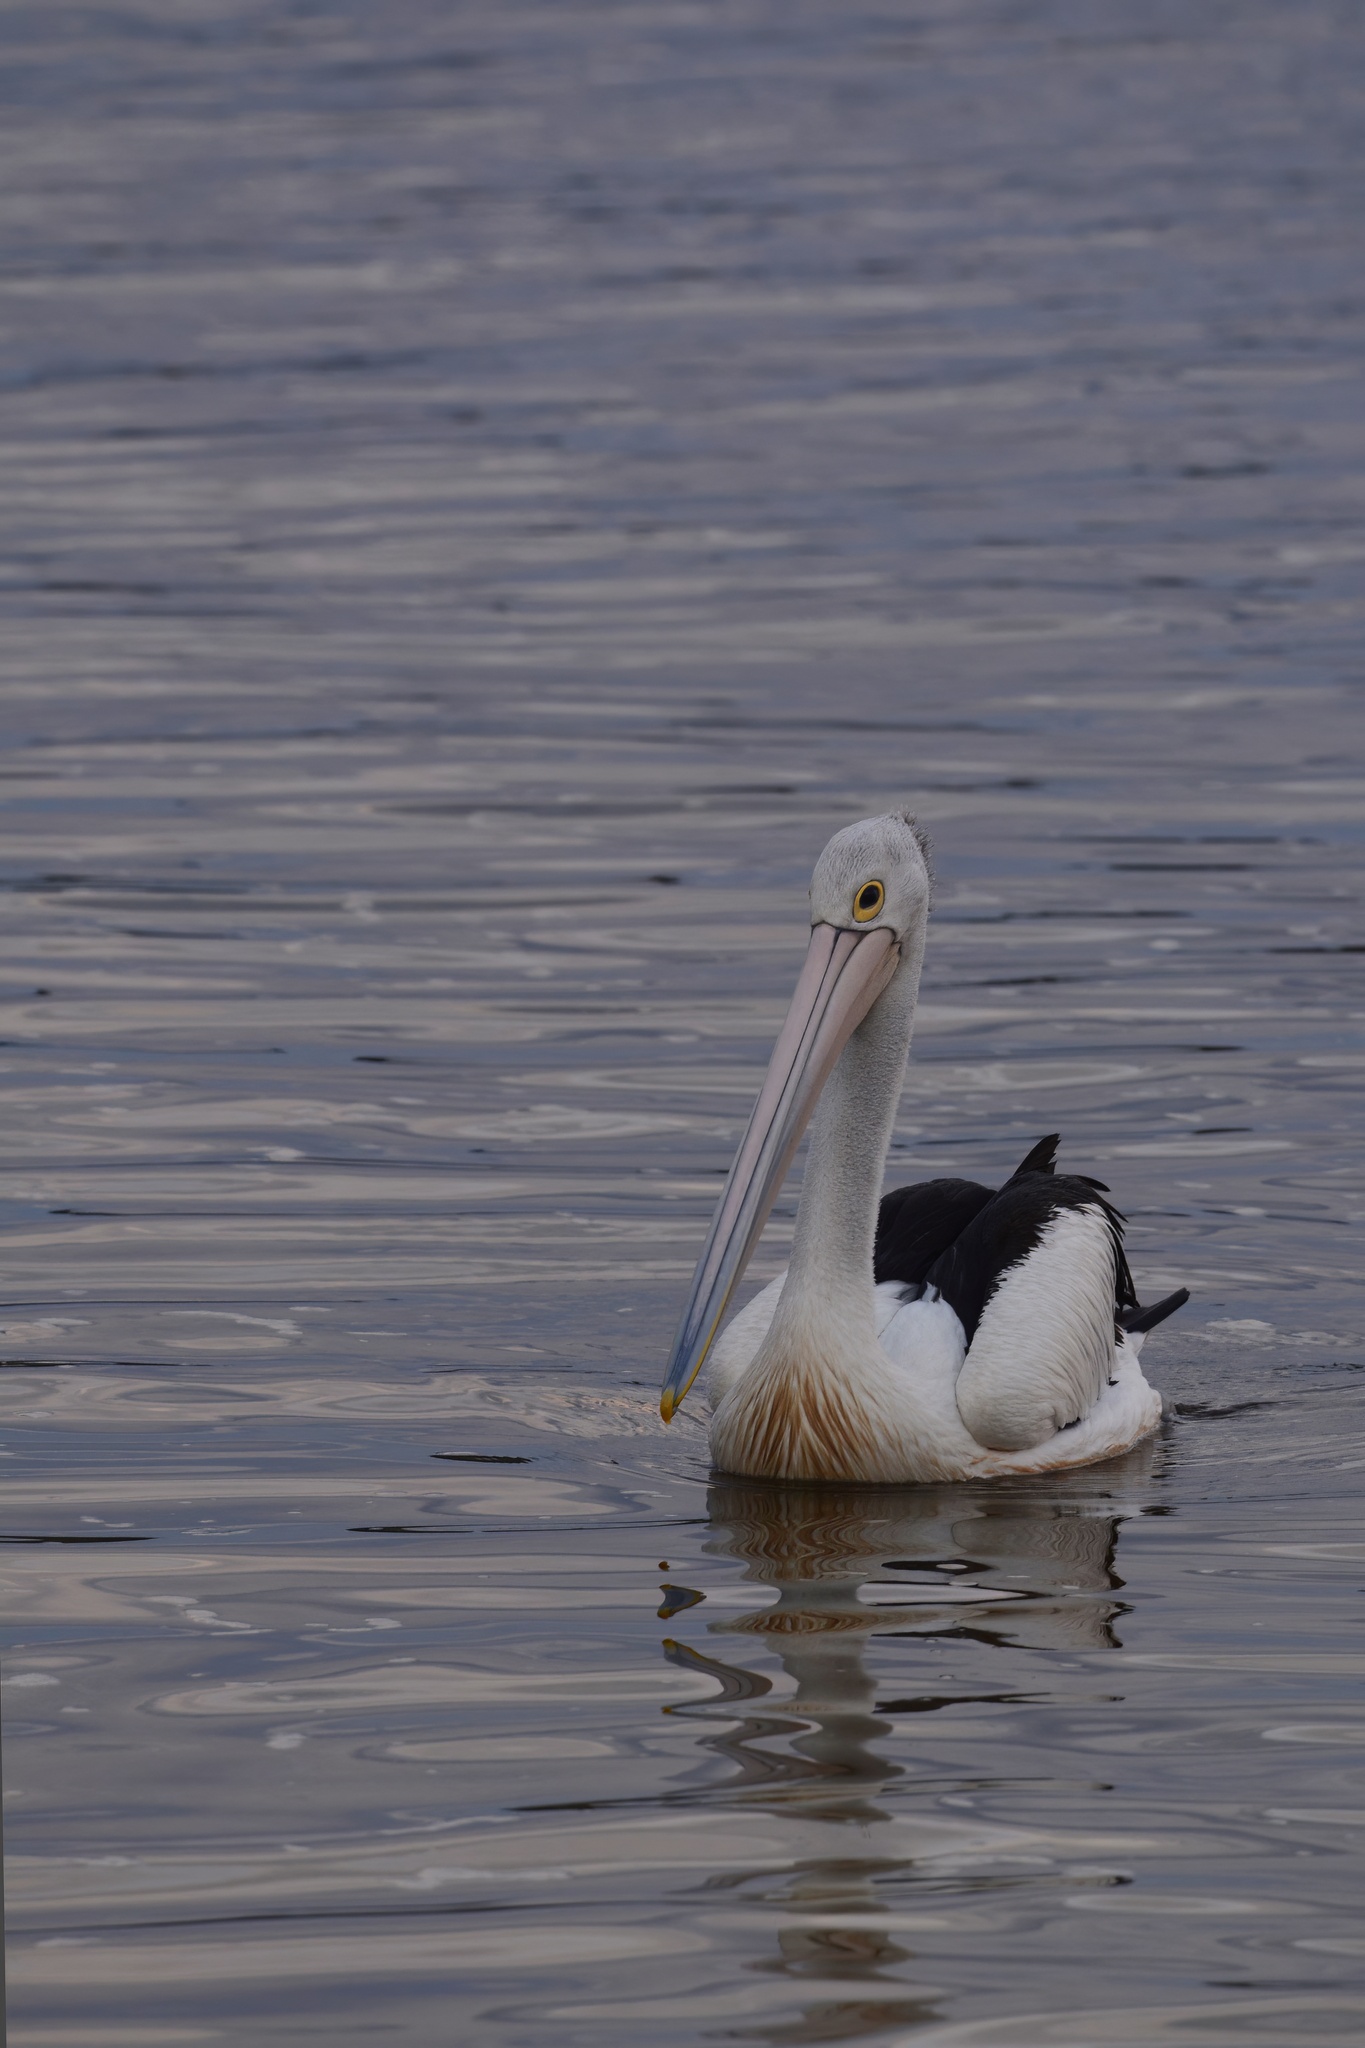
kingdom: Animalia
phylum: Chordata
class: Aves
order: Pelecaniformes
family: Pelecanidae
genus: Pelecanus
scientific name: Pelecanus conspicillatus
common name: Australian pelican
